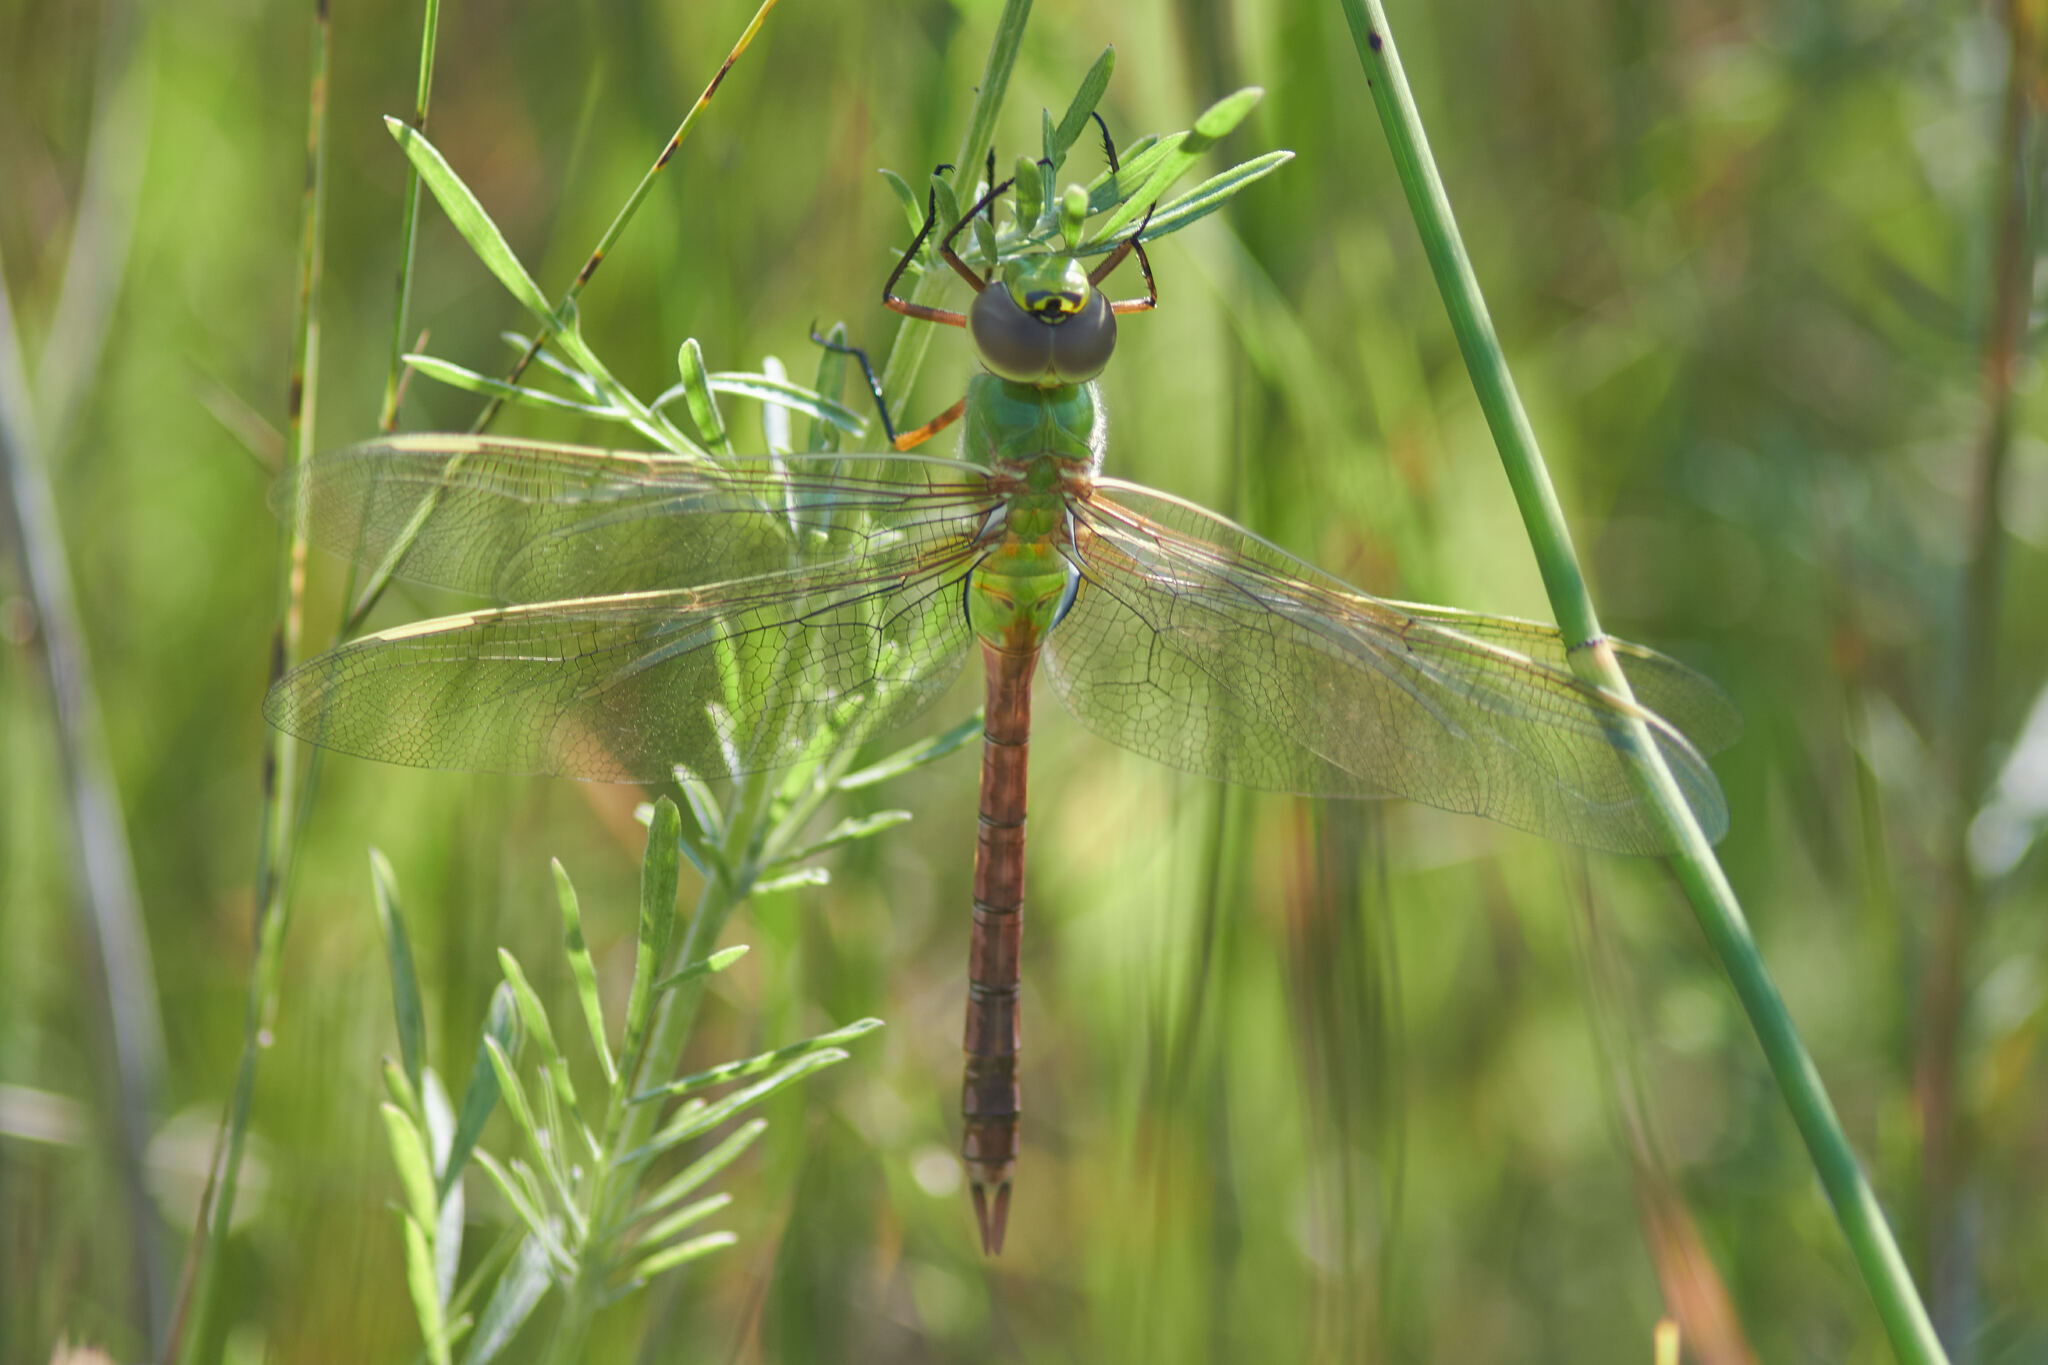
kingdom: Animalia
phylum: Arthropoda
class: Insecta
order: Odonata
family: Aeshnidae
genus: Anax
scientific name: Anax junius
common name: Common green darner
